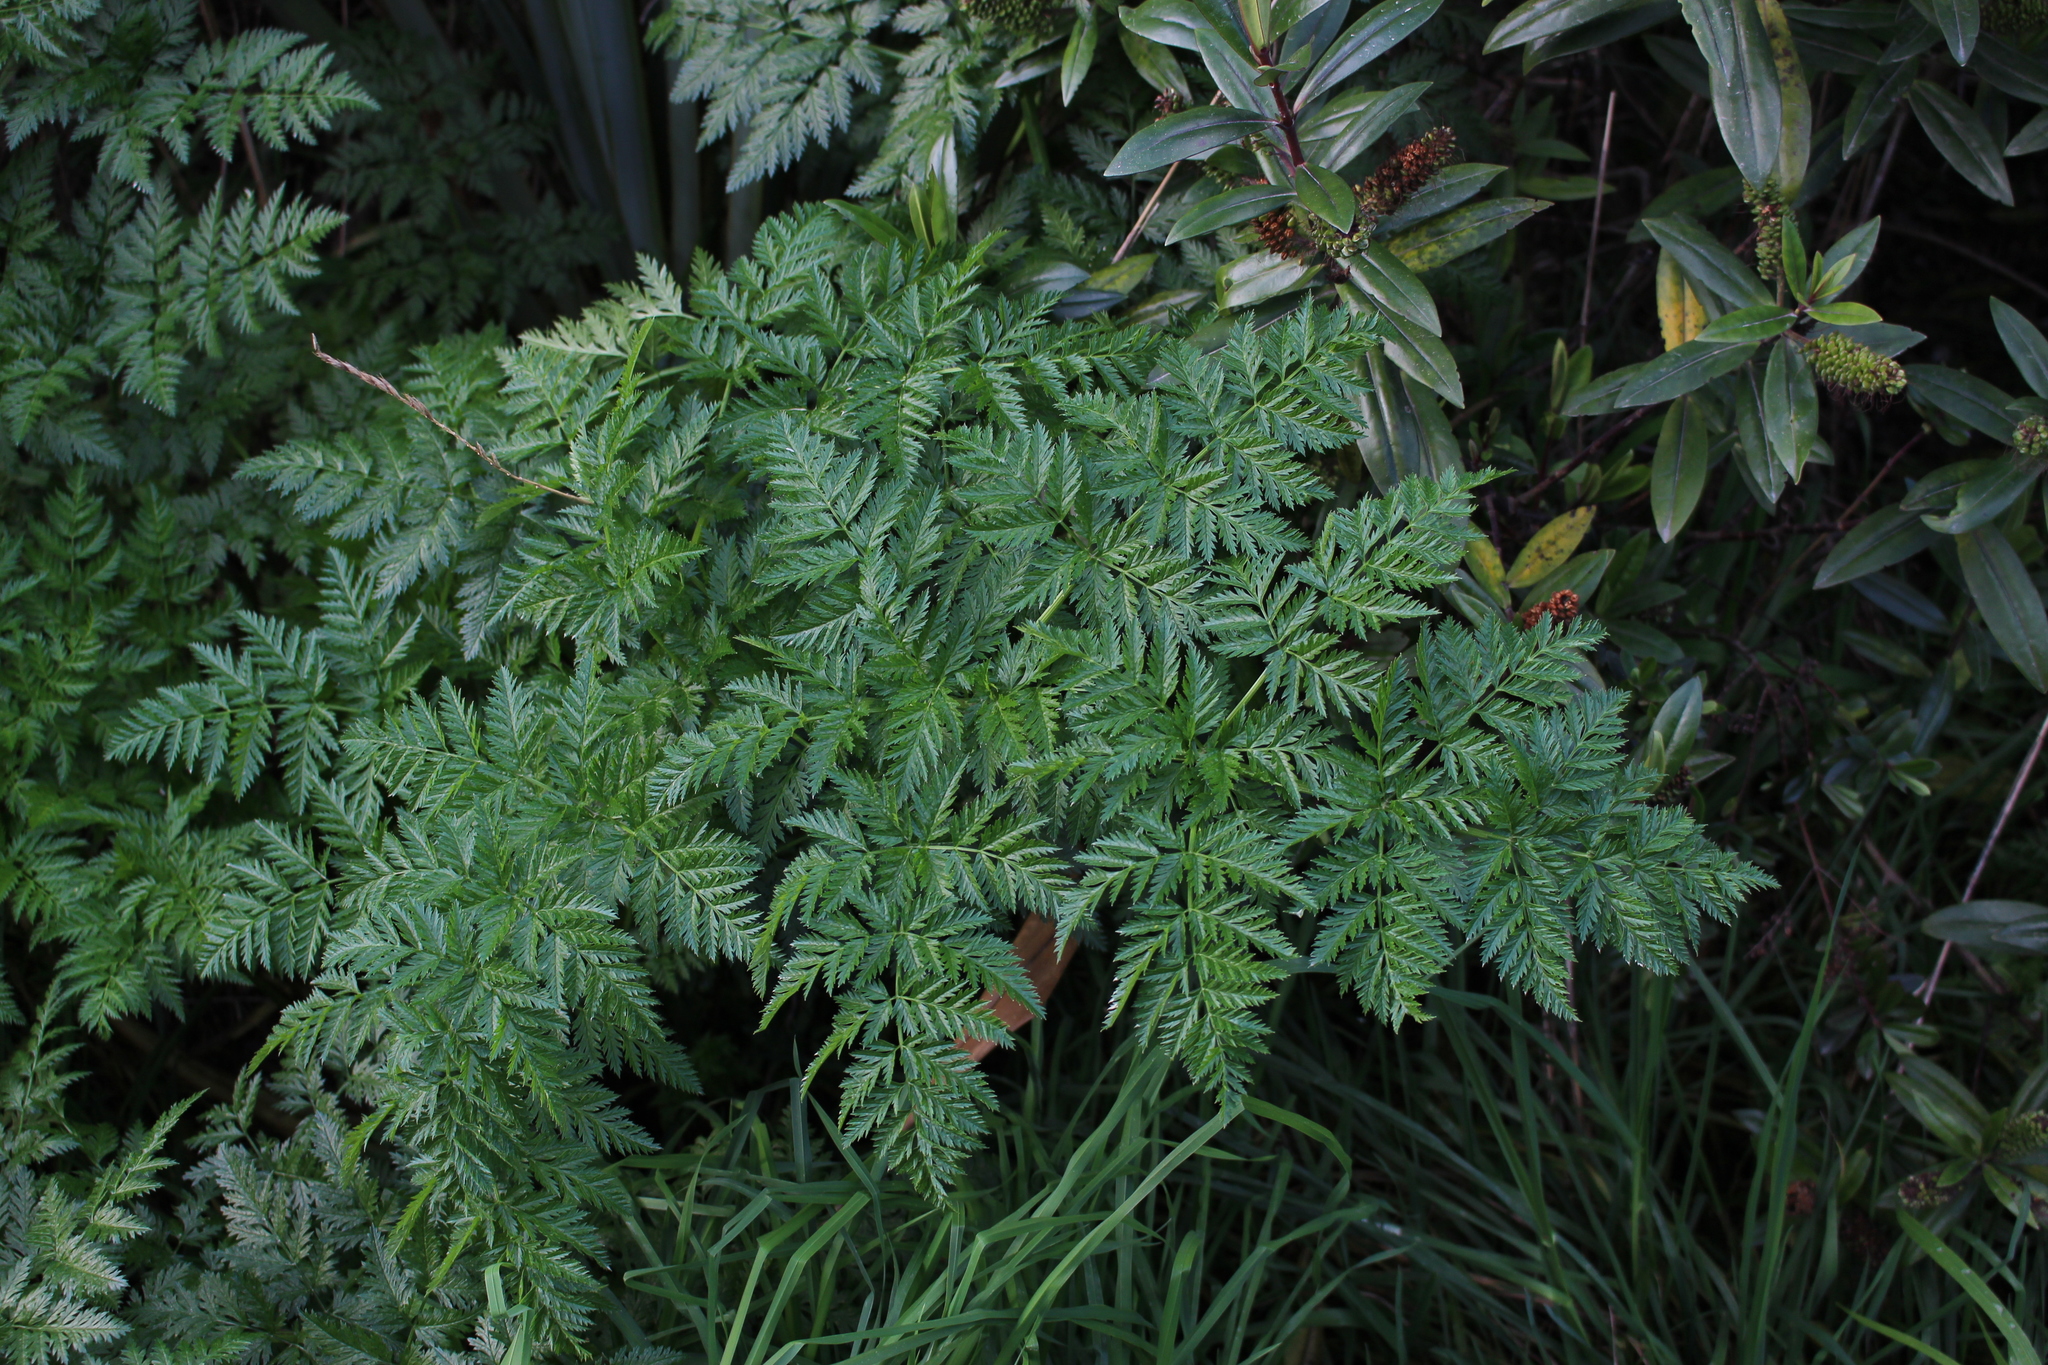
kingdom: Plantae
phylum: Tracheophyta
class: Magnoliopsida
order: Apiales
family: Apiaceae
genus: Conium
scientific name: Conium maculatum
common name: Hemlock
